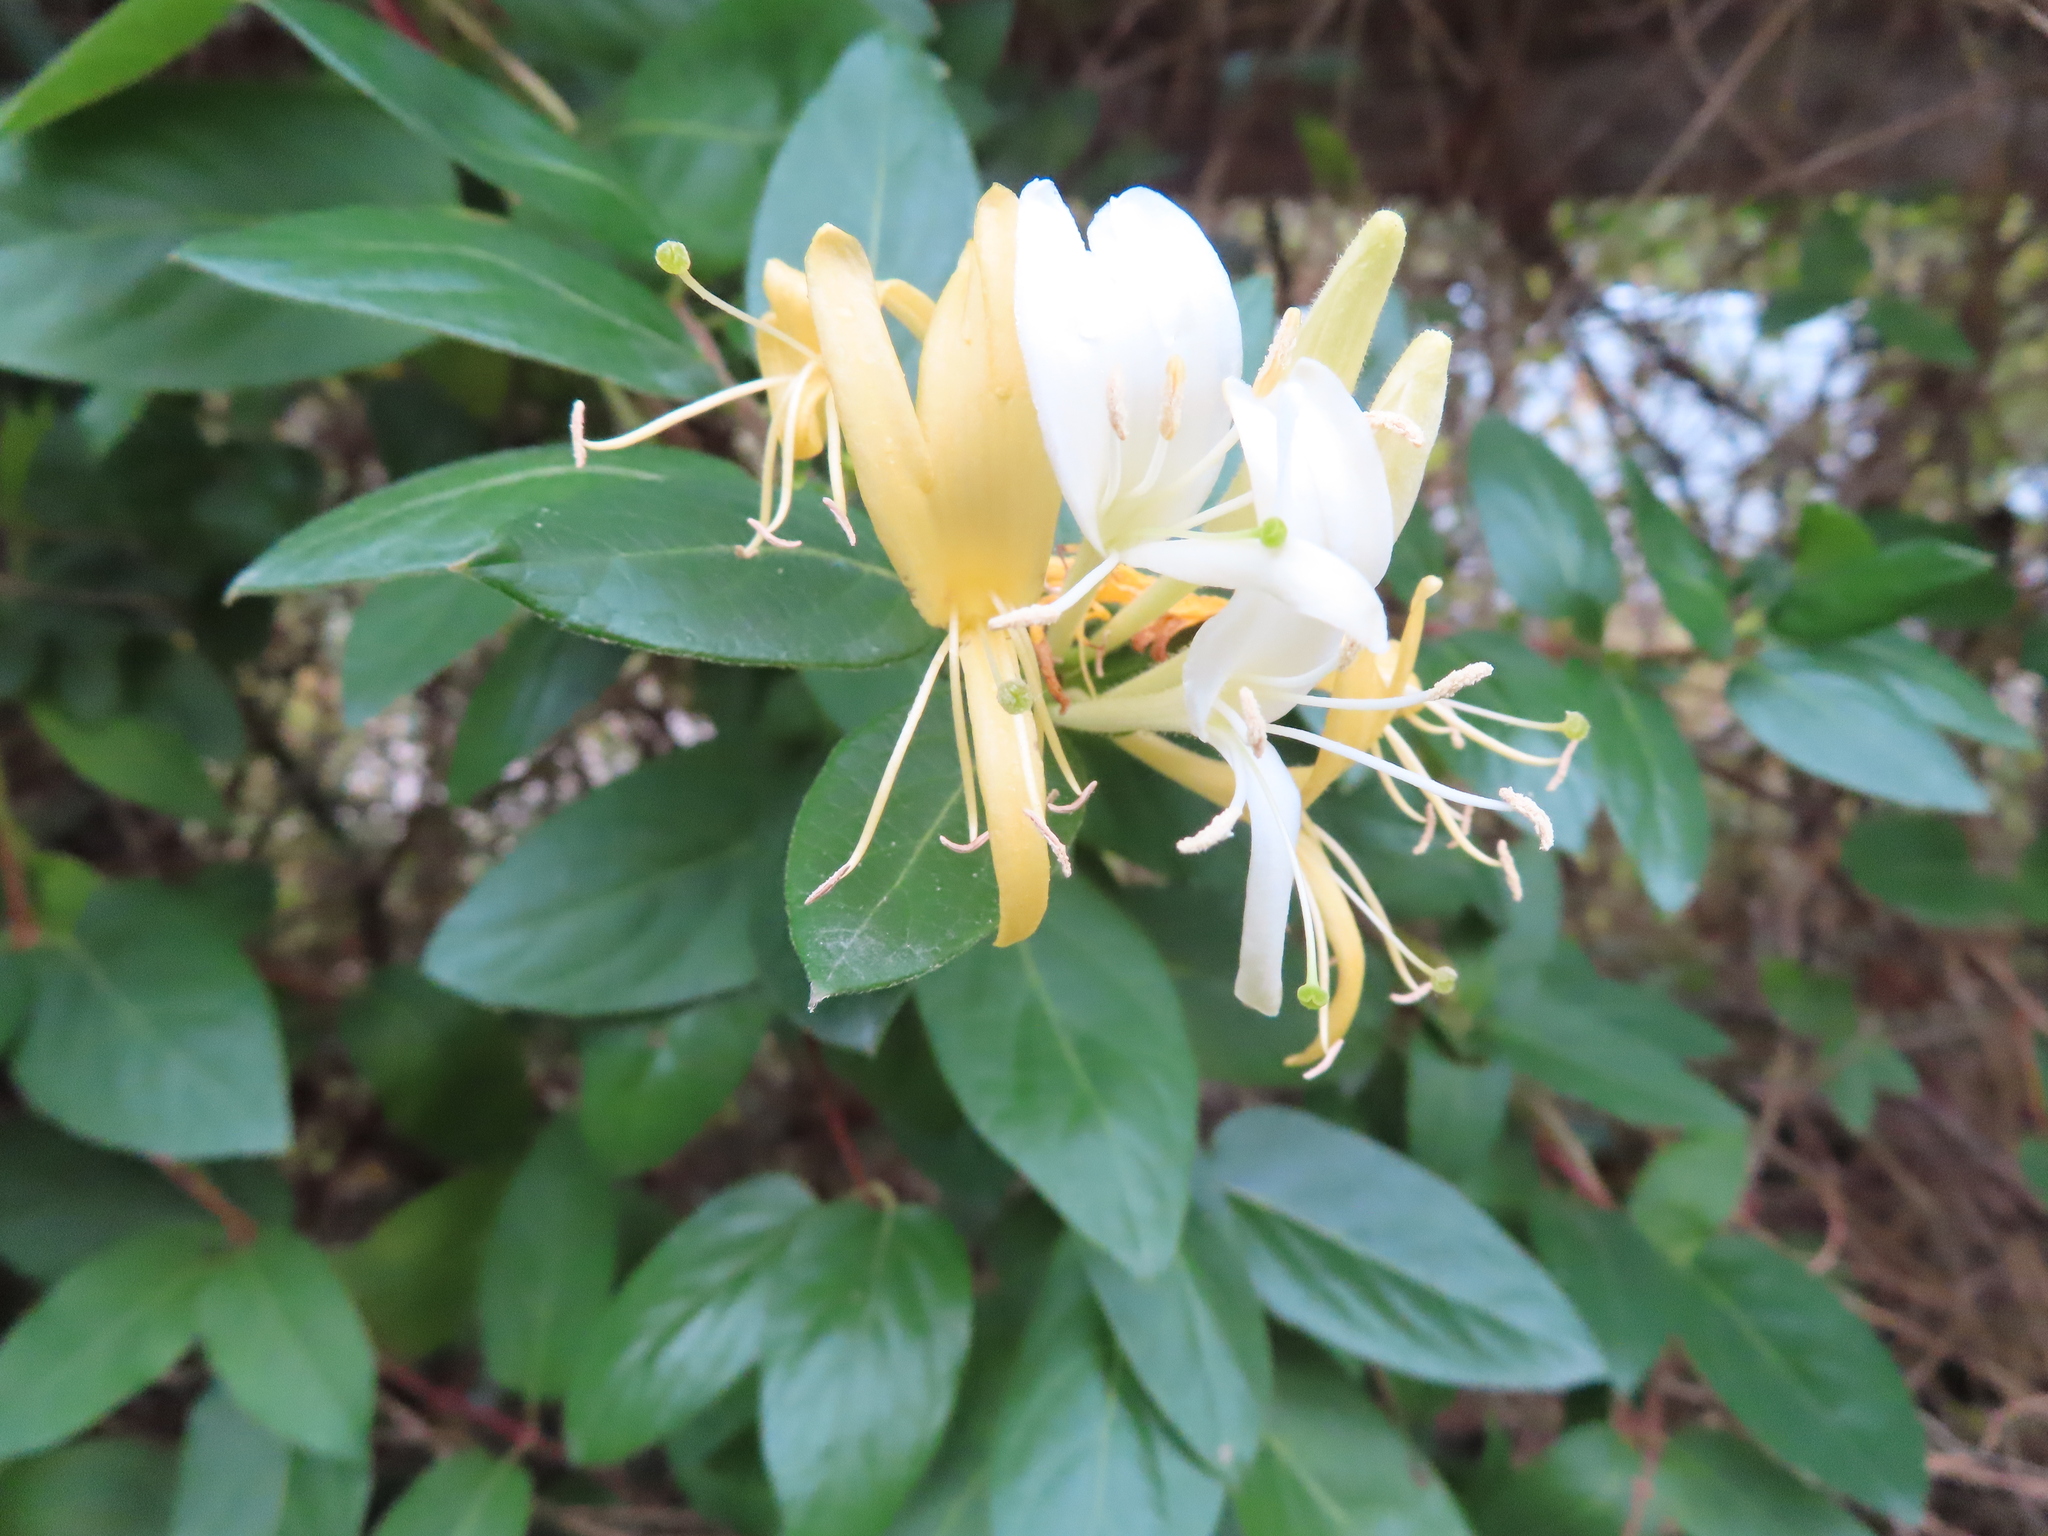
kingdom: Plantae
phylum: Tracheophyta
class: Magnoliopsida
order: Dipsacales
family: Caprifoliaceae
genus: Lonicera
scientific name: Lonicera japonica
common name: Japanese honeysuckle
